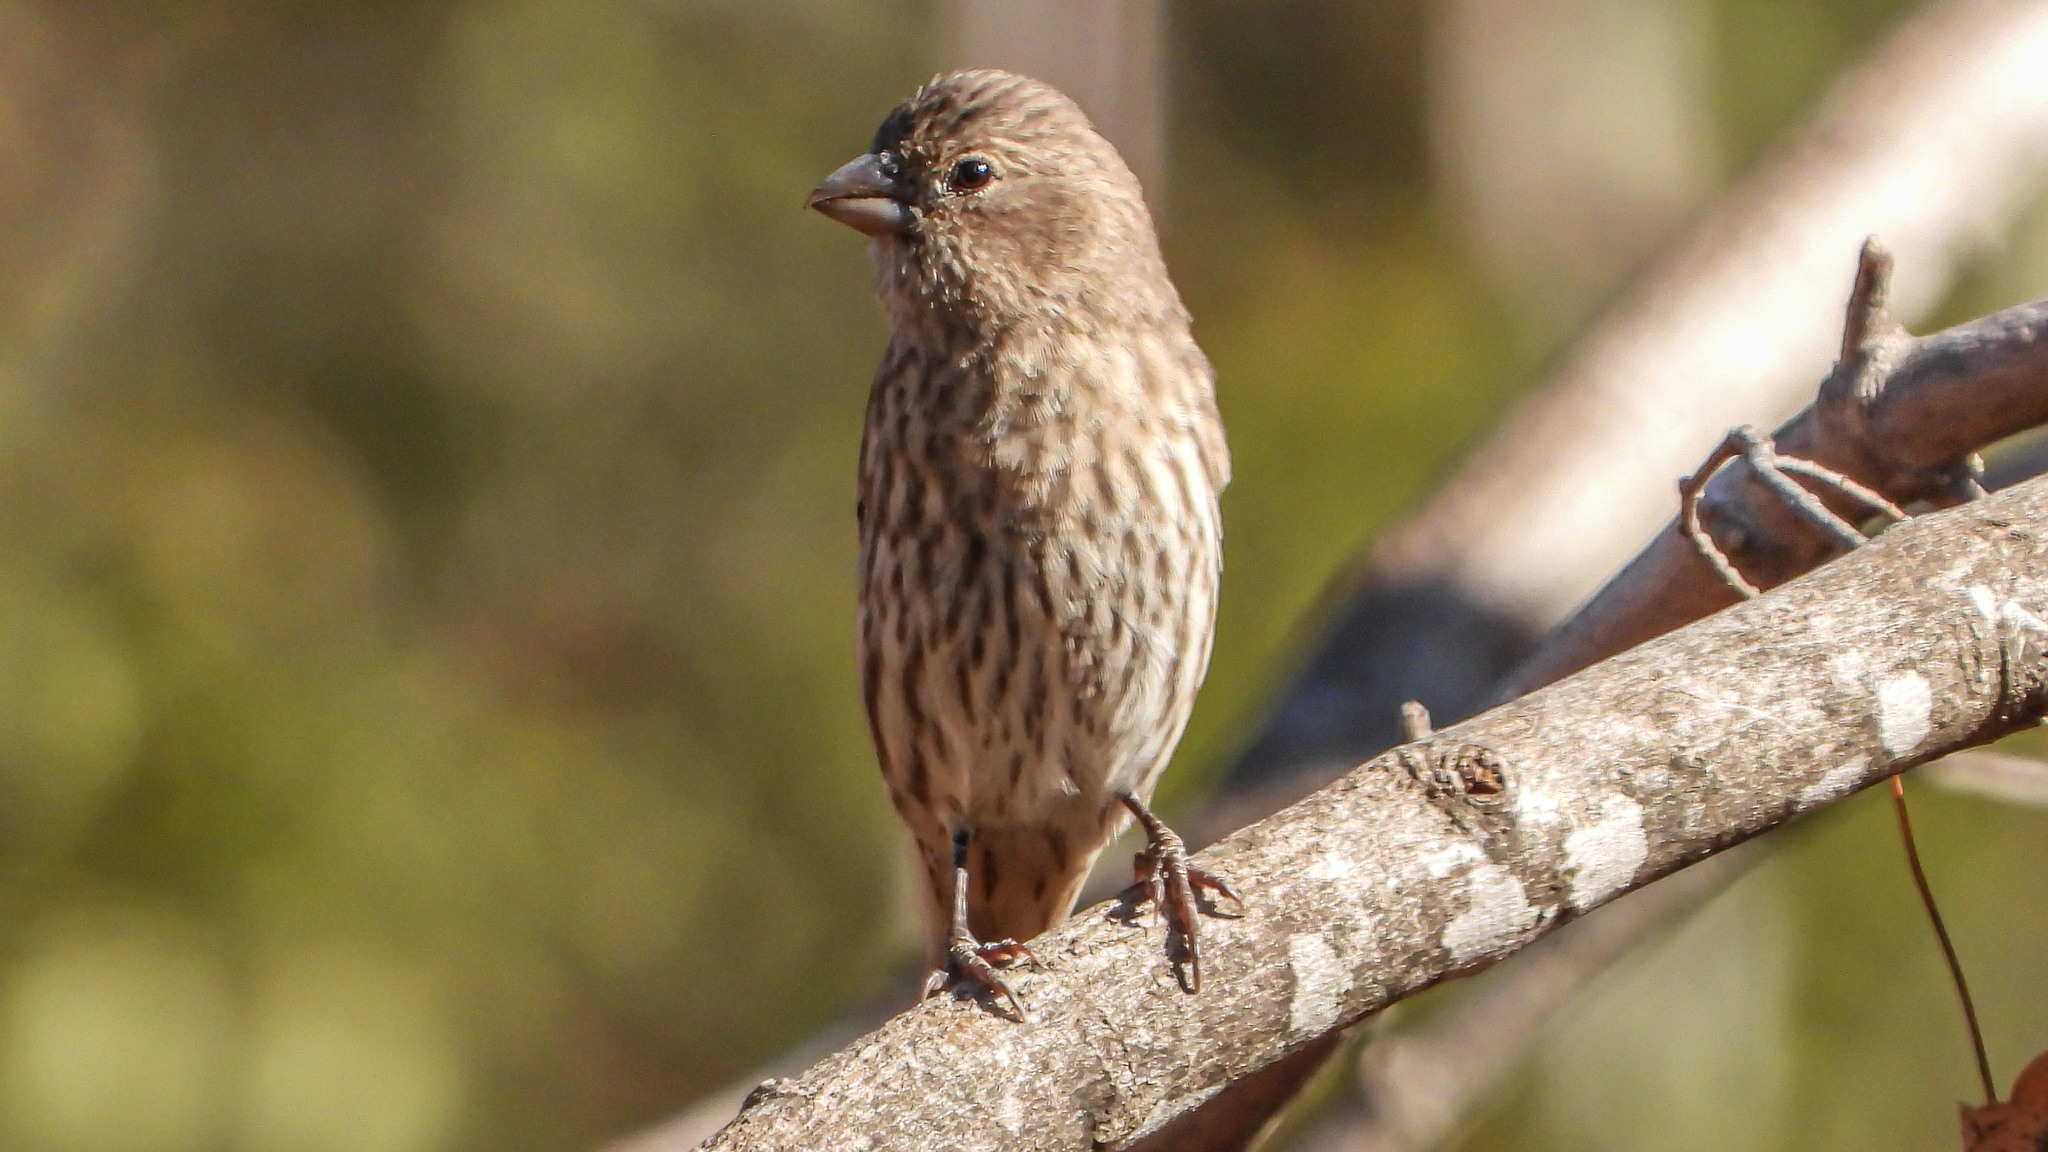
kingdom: Animalia
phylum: Chordata
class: Aves
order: Passeriformes
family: Fringillidae
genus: Haemorhous
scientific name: Haemorhous mexicanus
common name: House finch
